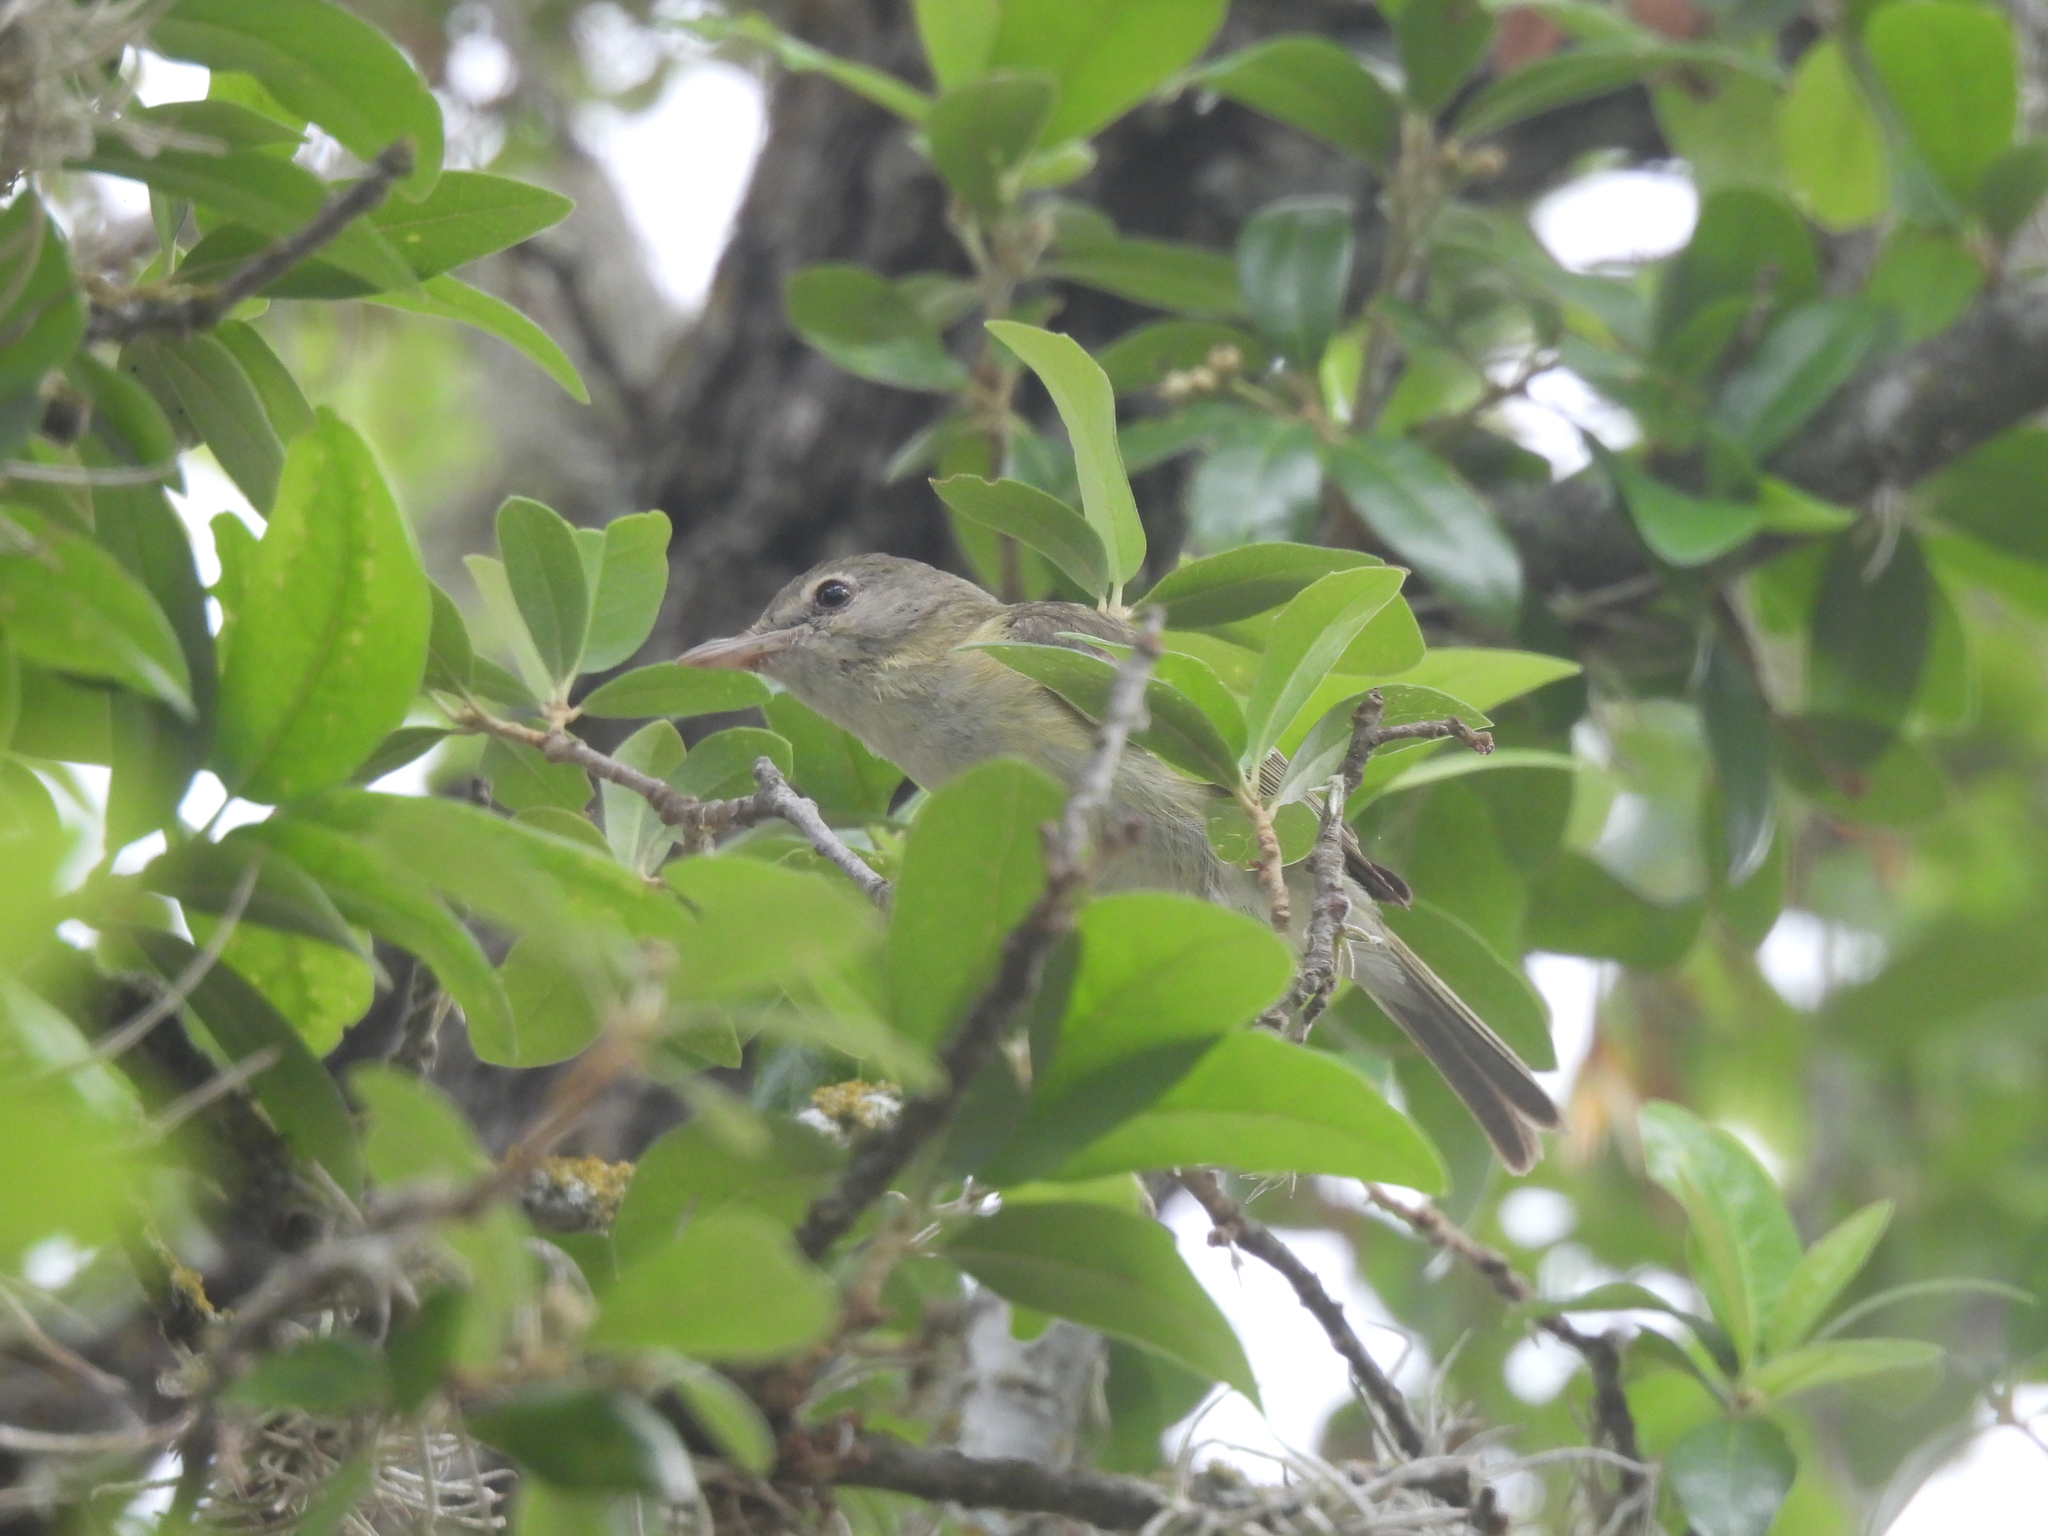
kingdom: Animalia
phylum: Chordata
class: Aves
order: Passeriformes
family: Vireonidae
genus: Vireo
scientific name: Vireo bellii
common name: Bell's vireo
